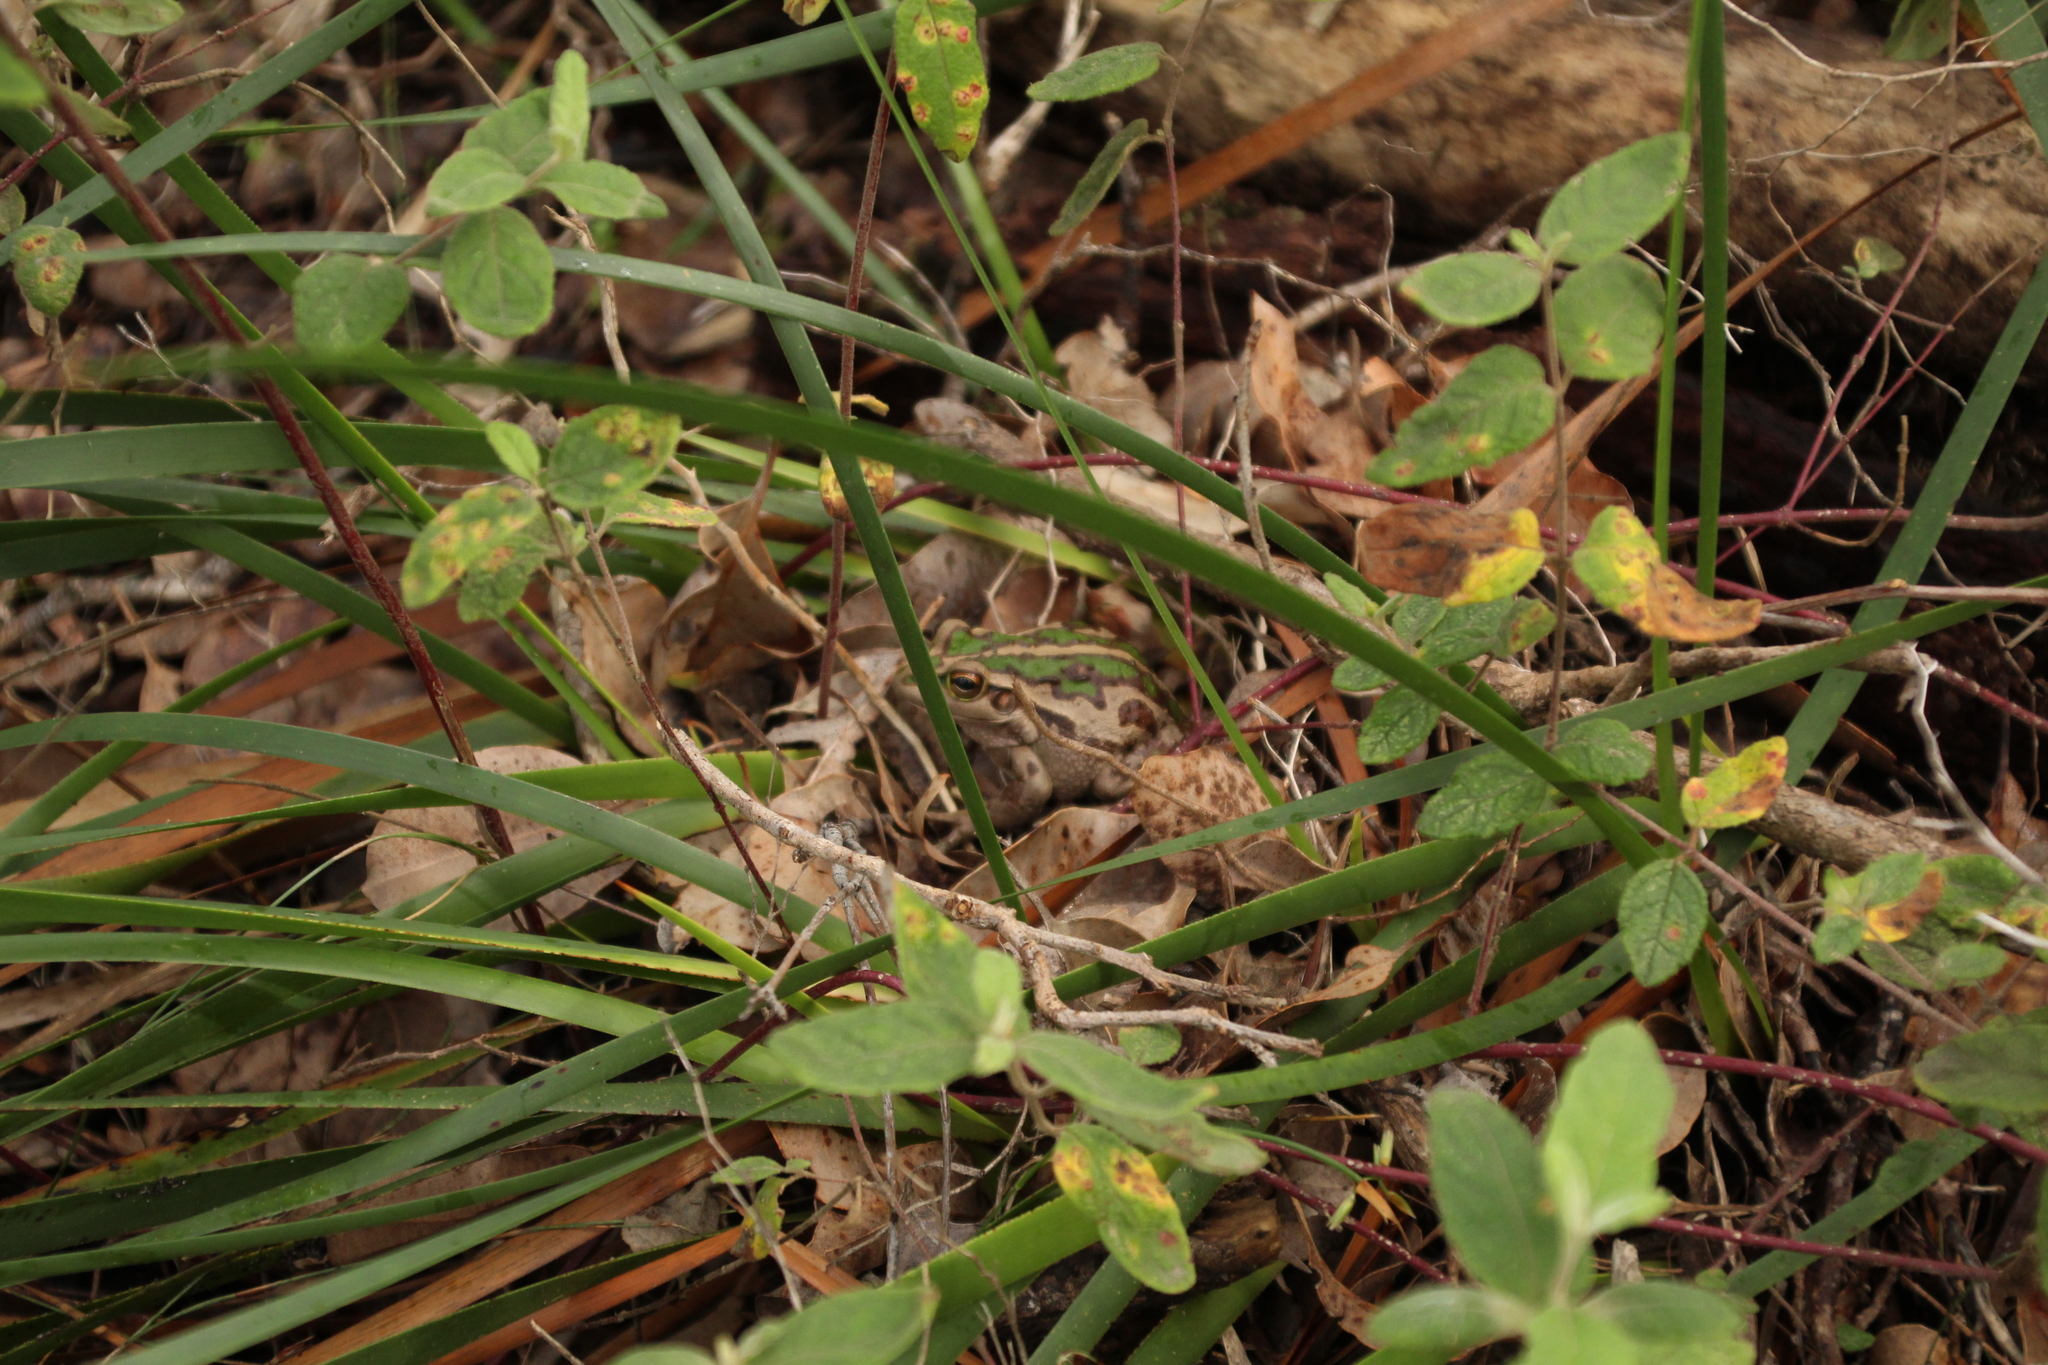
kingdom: Animalia
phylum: Chordata
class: Amphibia
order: Anura
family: Pelodryadidae
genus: Ranoidea
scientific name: Ranoidea moorei
